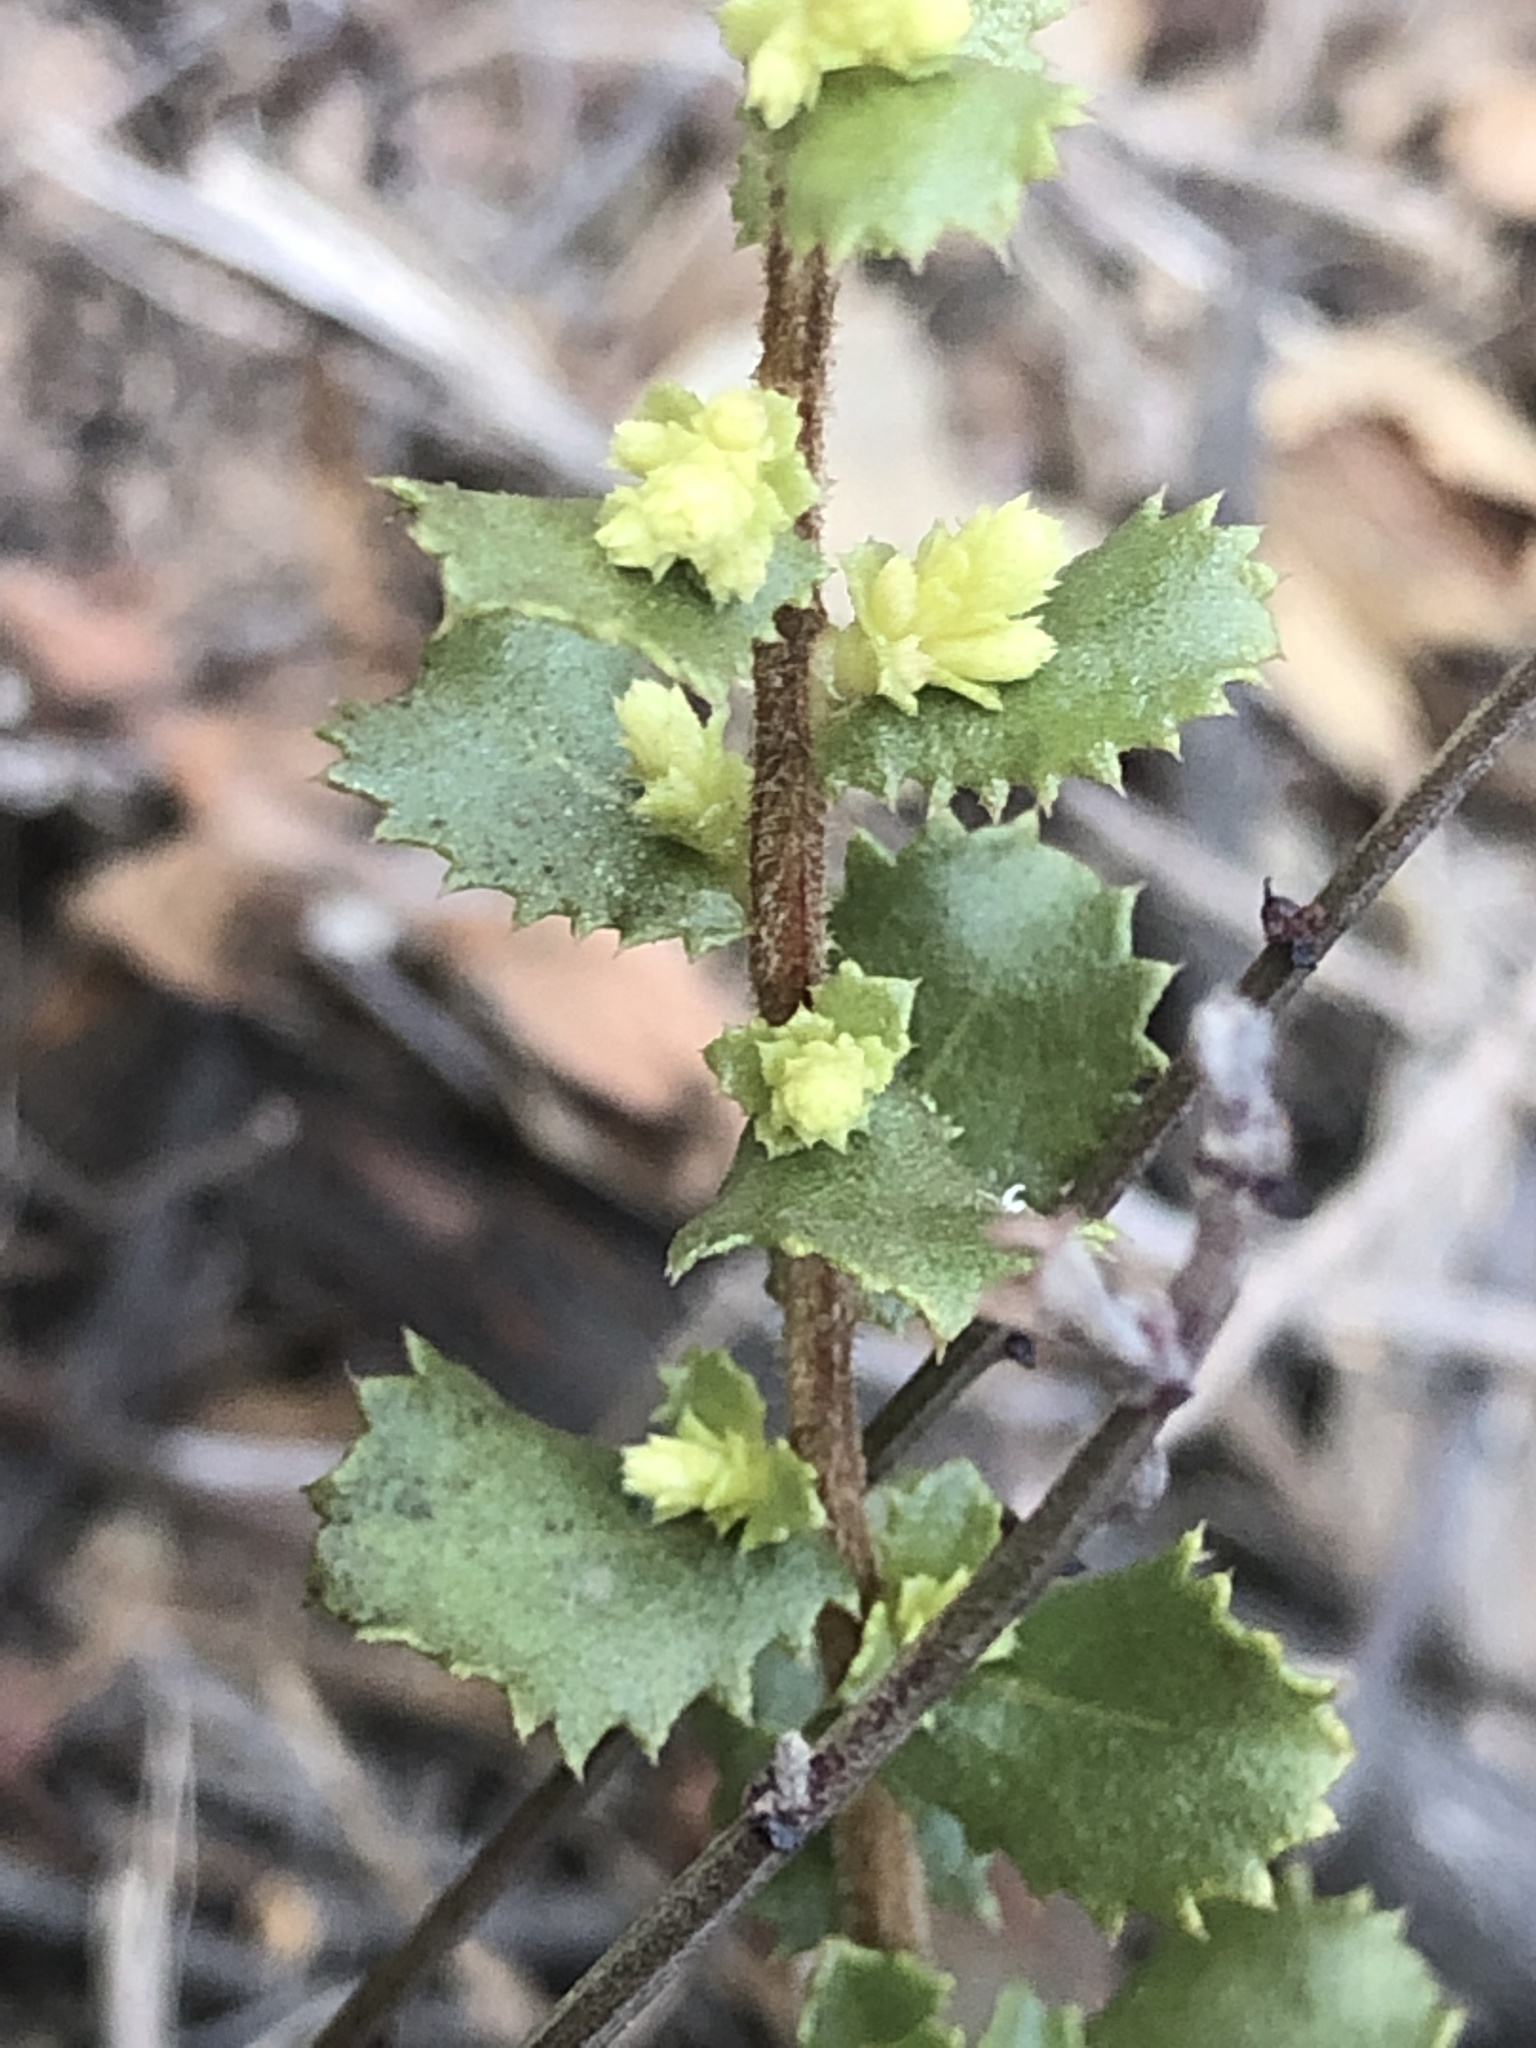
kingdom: Plantae
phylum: Tracheophyta
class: Magnoliopsida
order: Asterales
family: Asteraceae
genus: Hazardia
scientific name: Hazardia squarrosa
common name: Saw-tooth goldenbush
